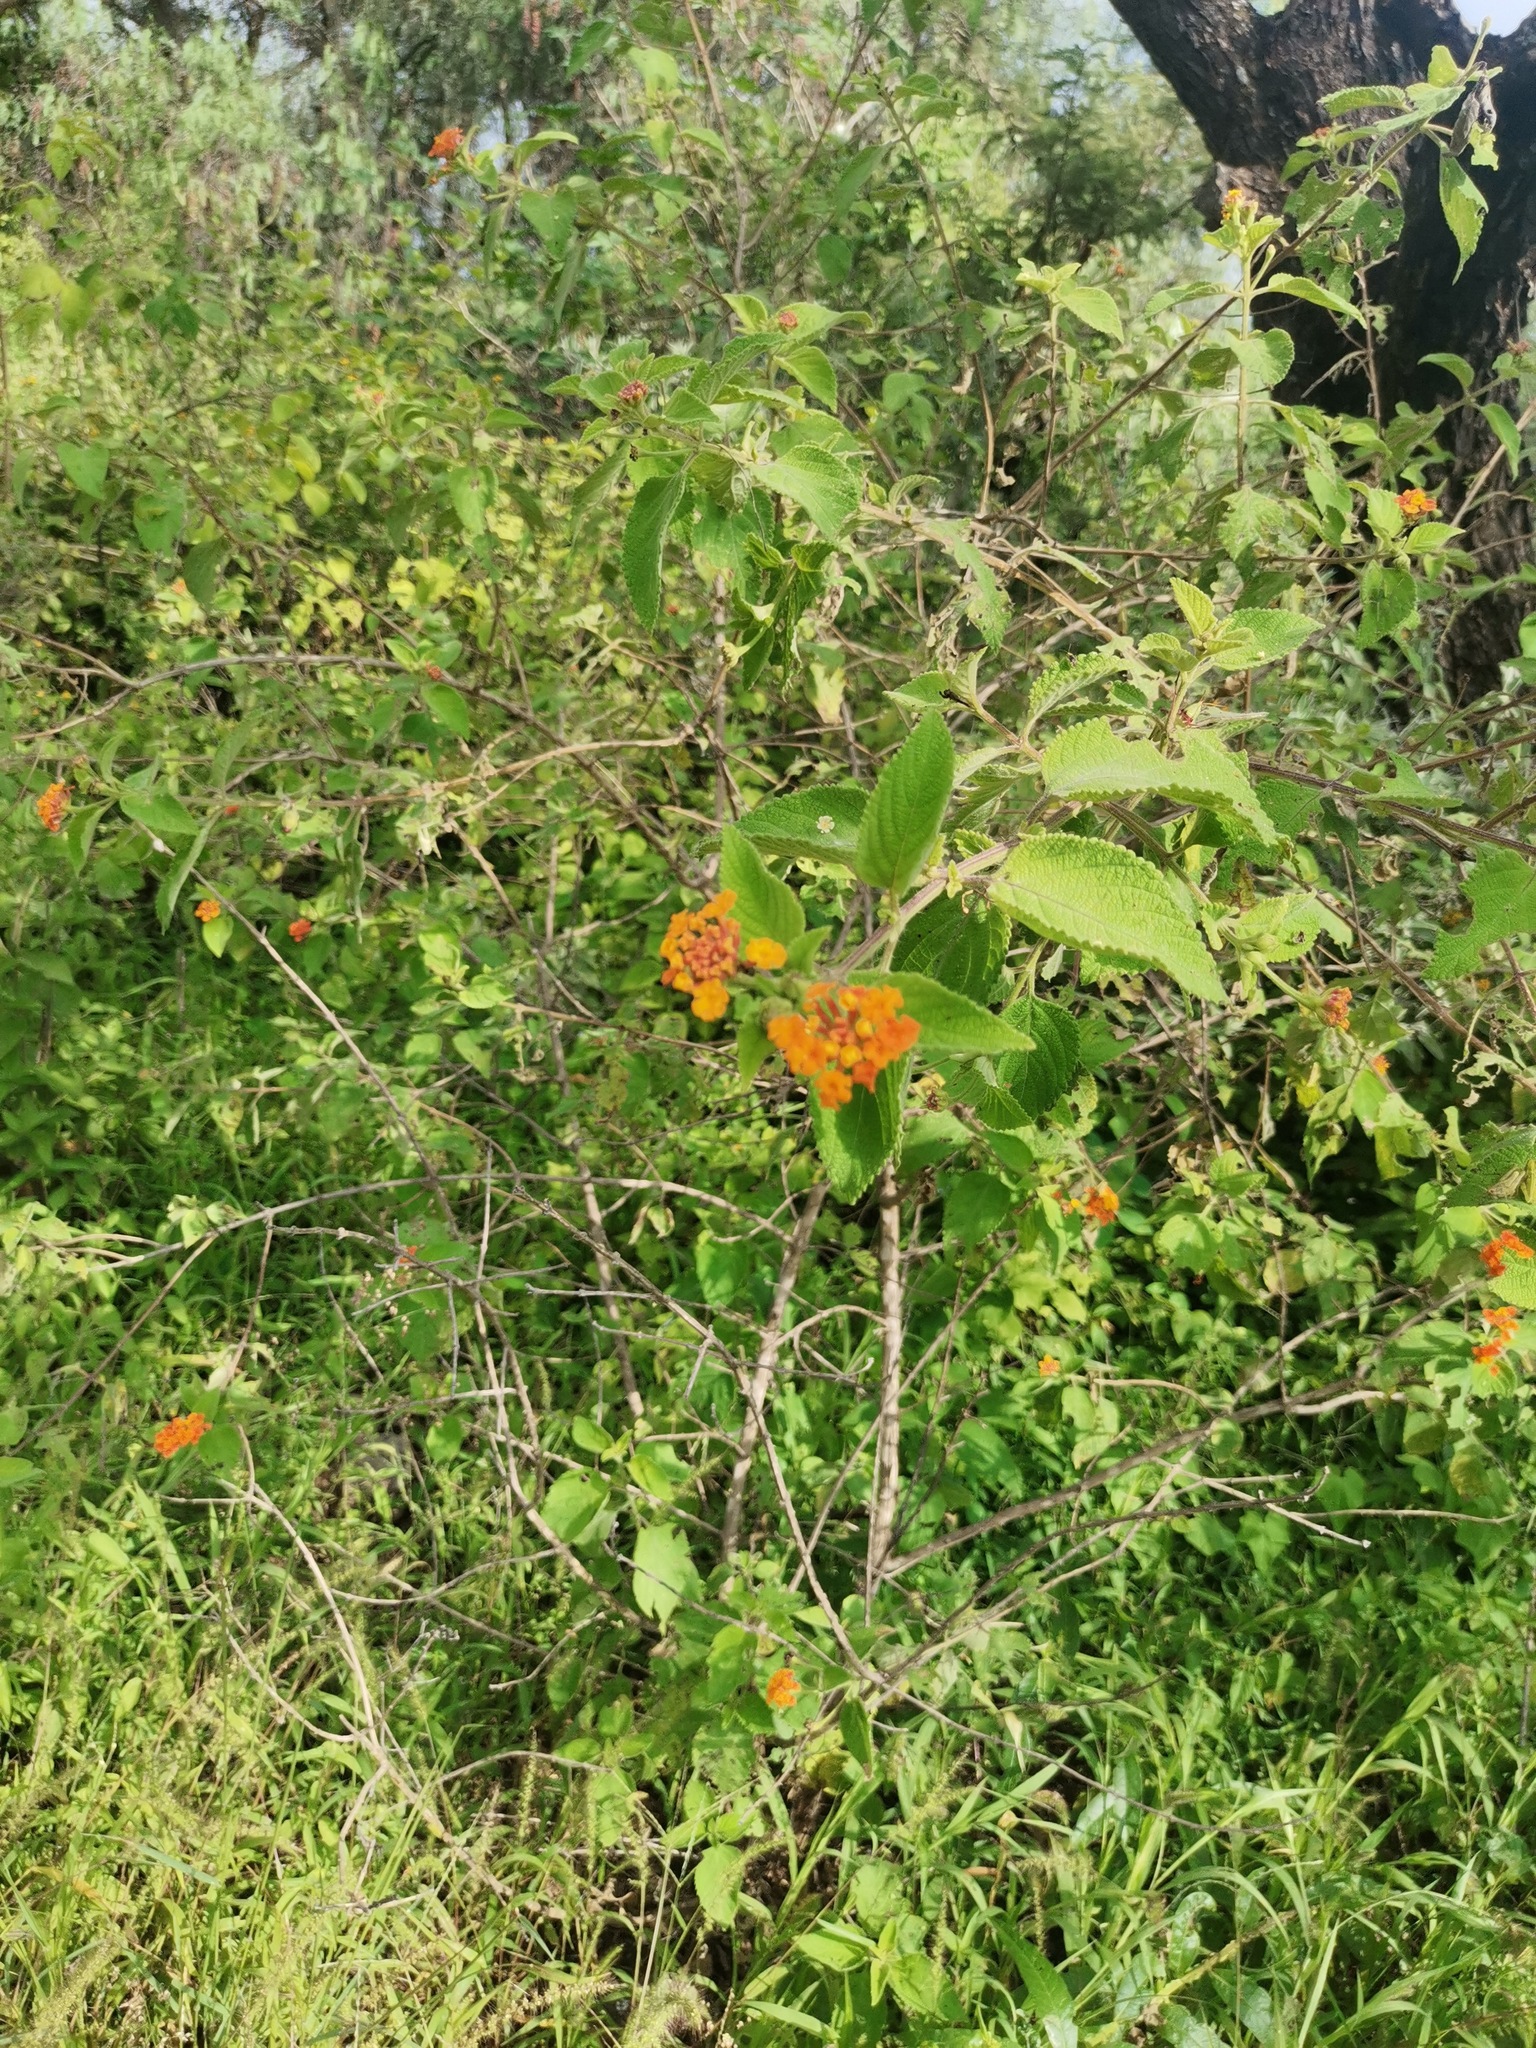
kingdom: Plantae
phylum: Tracheophyta
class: Magnoliopsida
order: Lamiales
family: Verbenaceae
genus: Lantana
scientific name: Lantana camara
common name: Lantana
